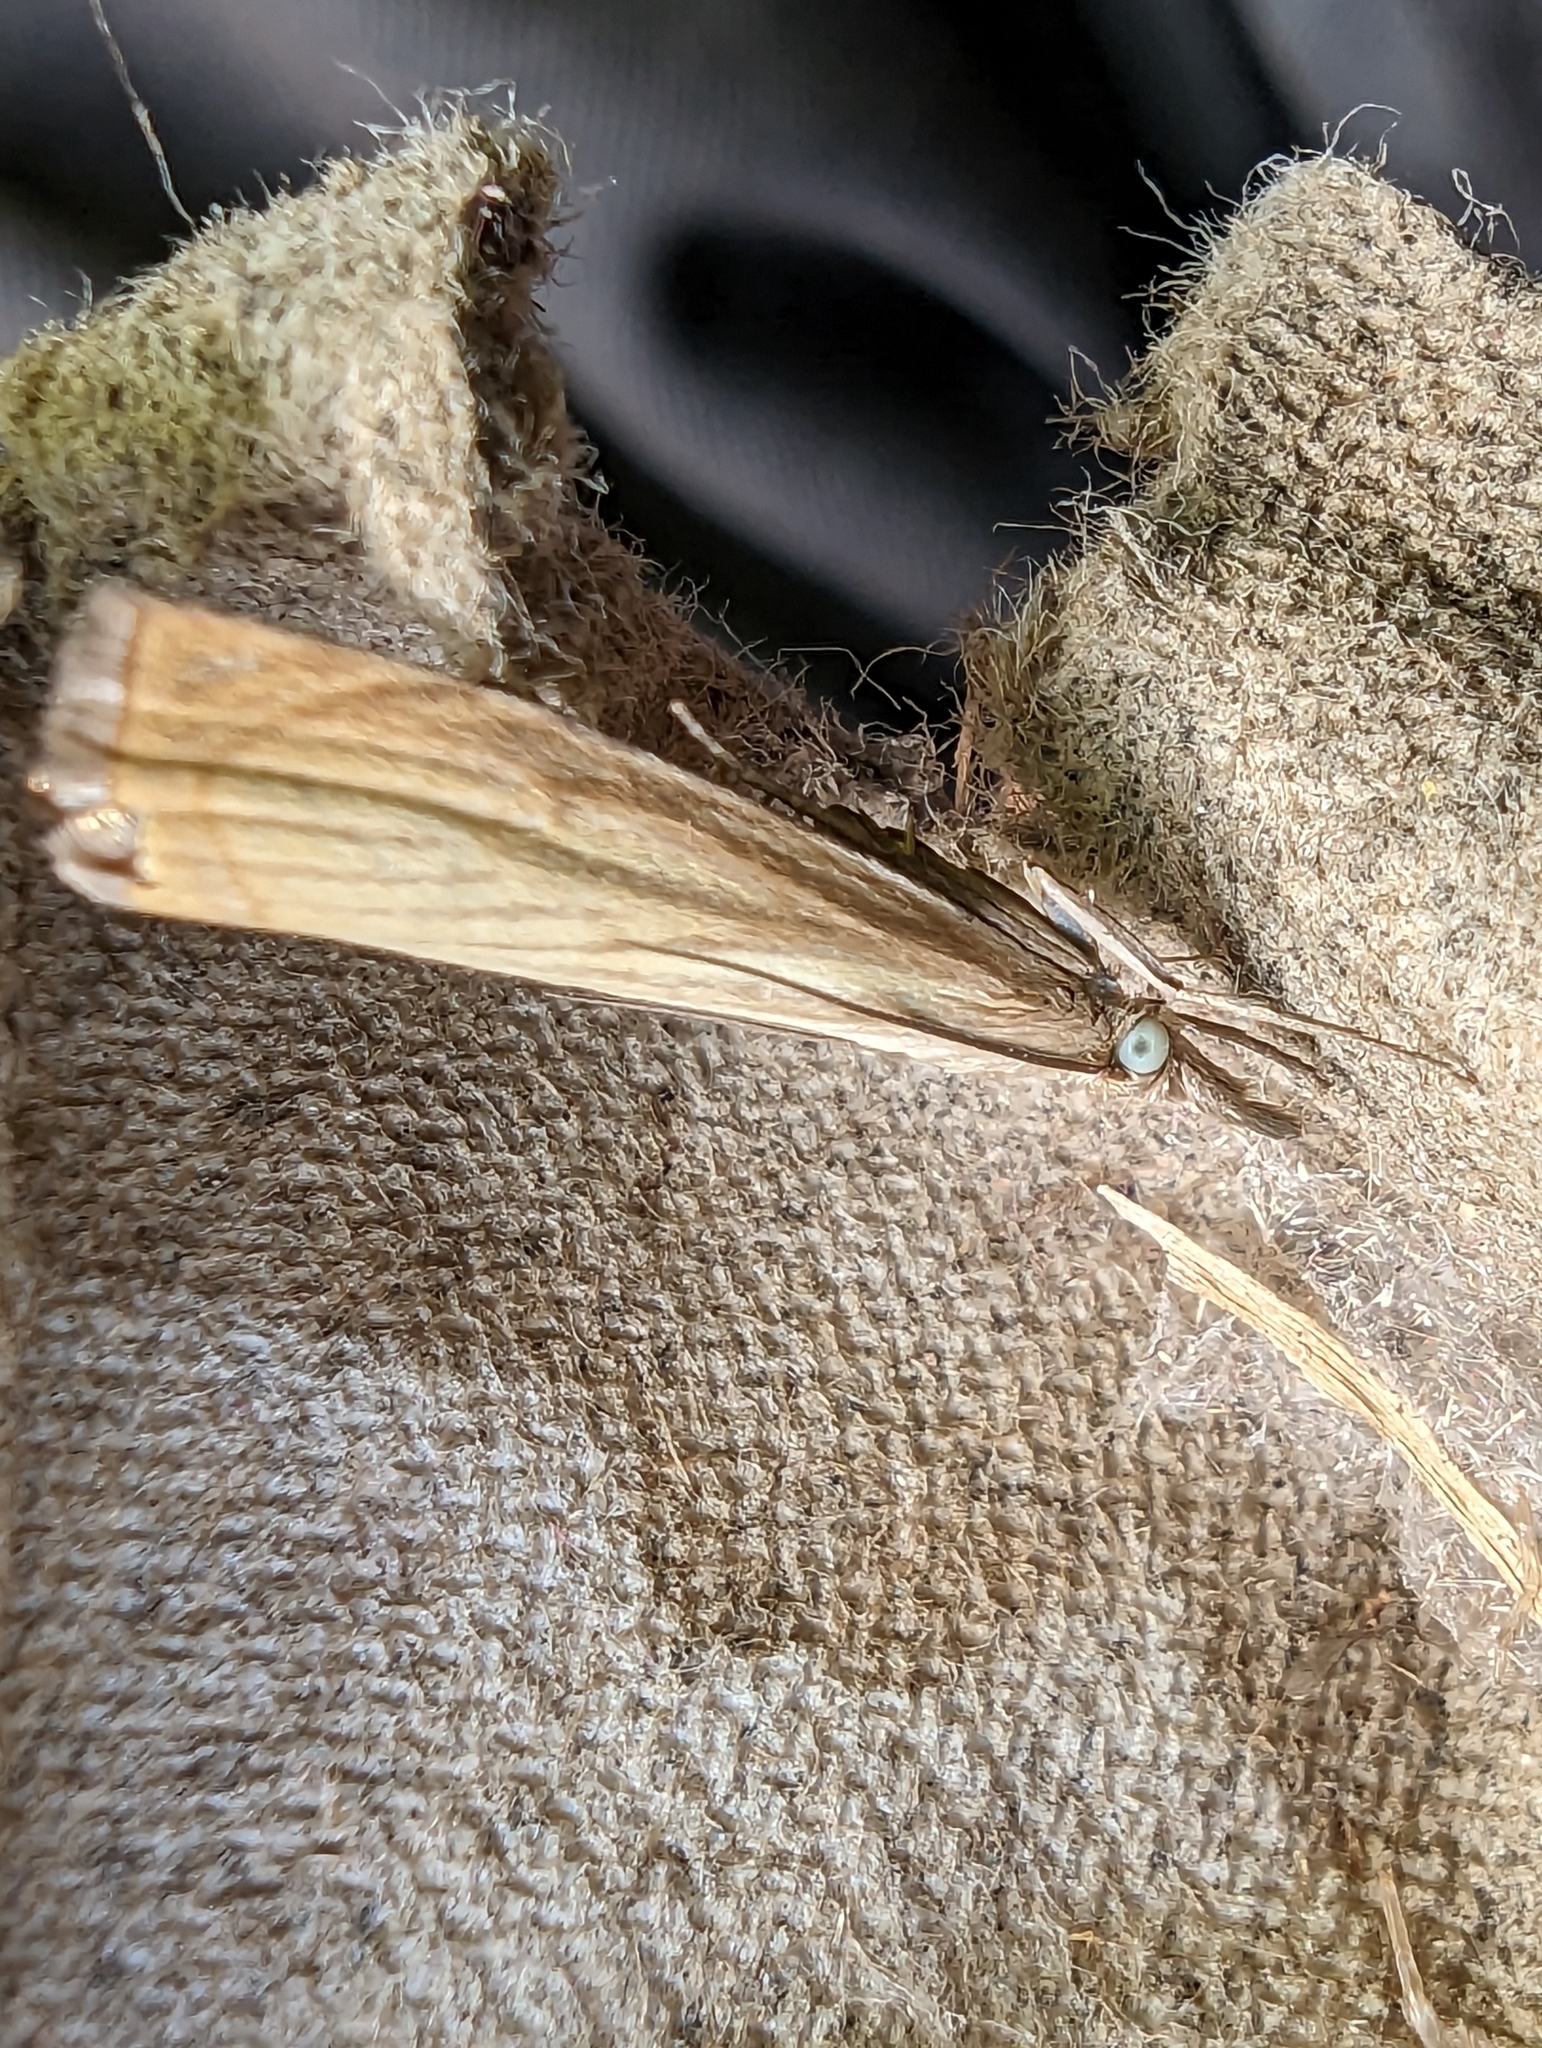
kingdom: Animalia
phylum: Arthropoda
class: Insecta
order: Lepidoptera
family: Crambidae
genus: Chrysoteuchia
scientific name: Chrysoteuchia culmella
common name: Garden grass-veneer
